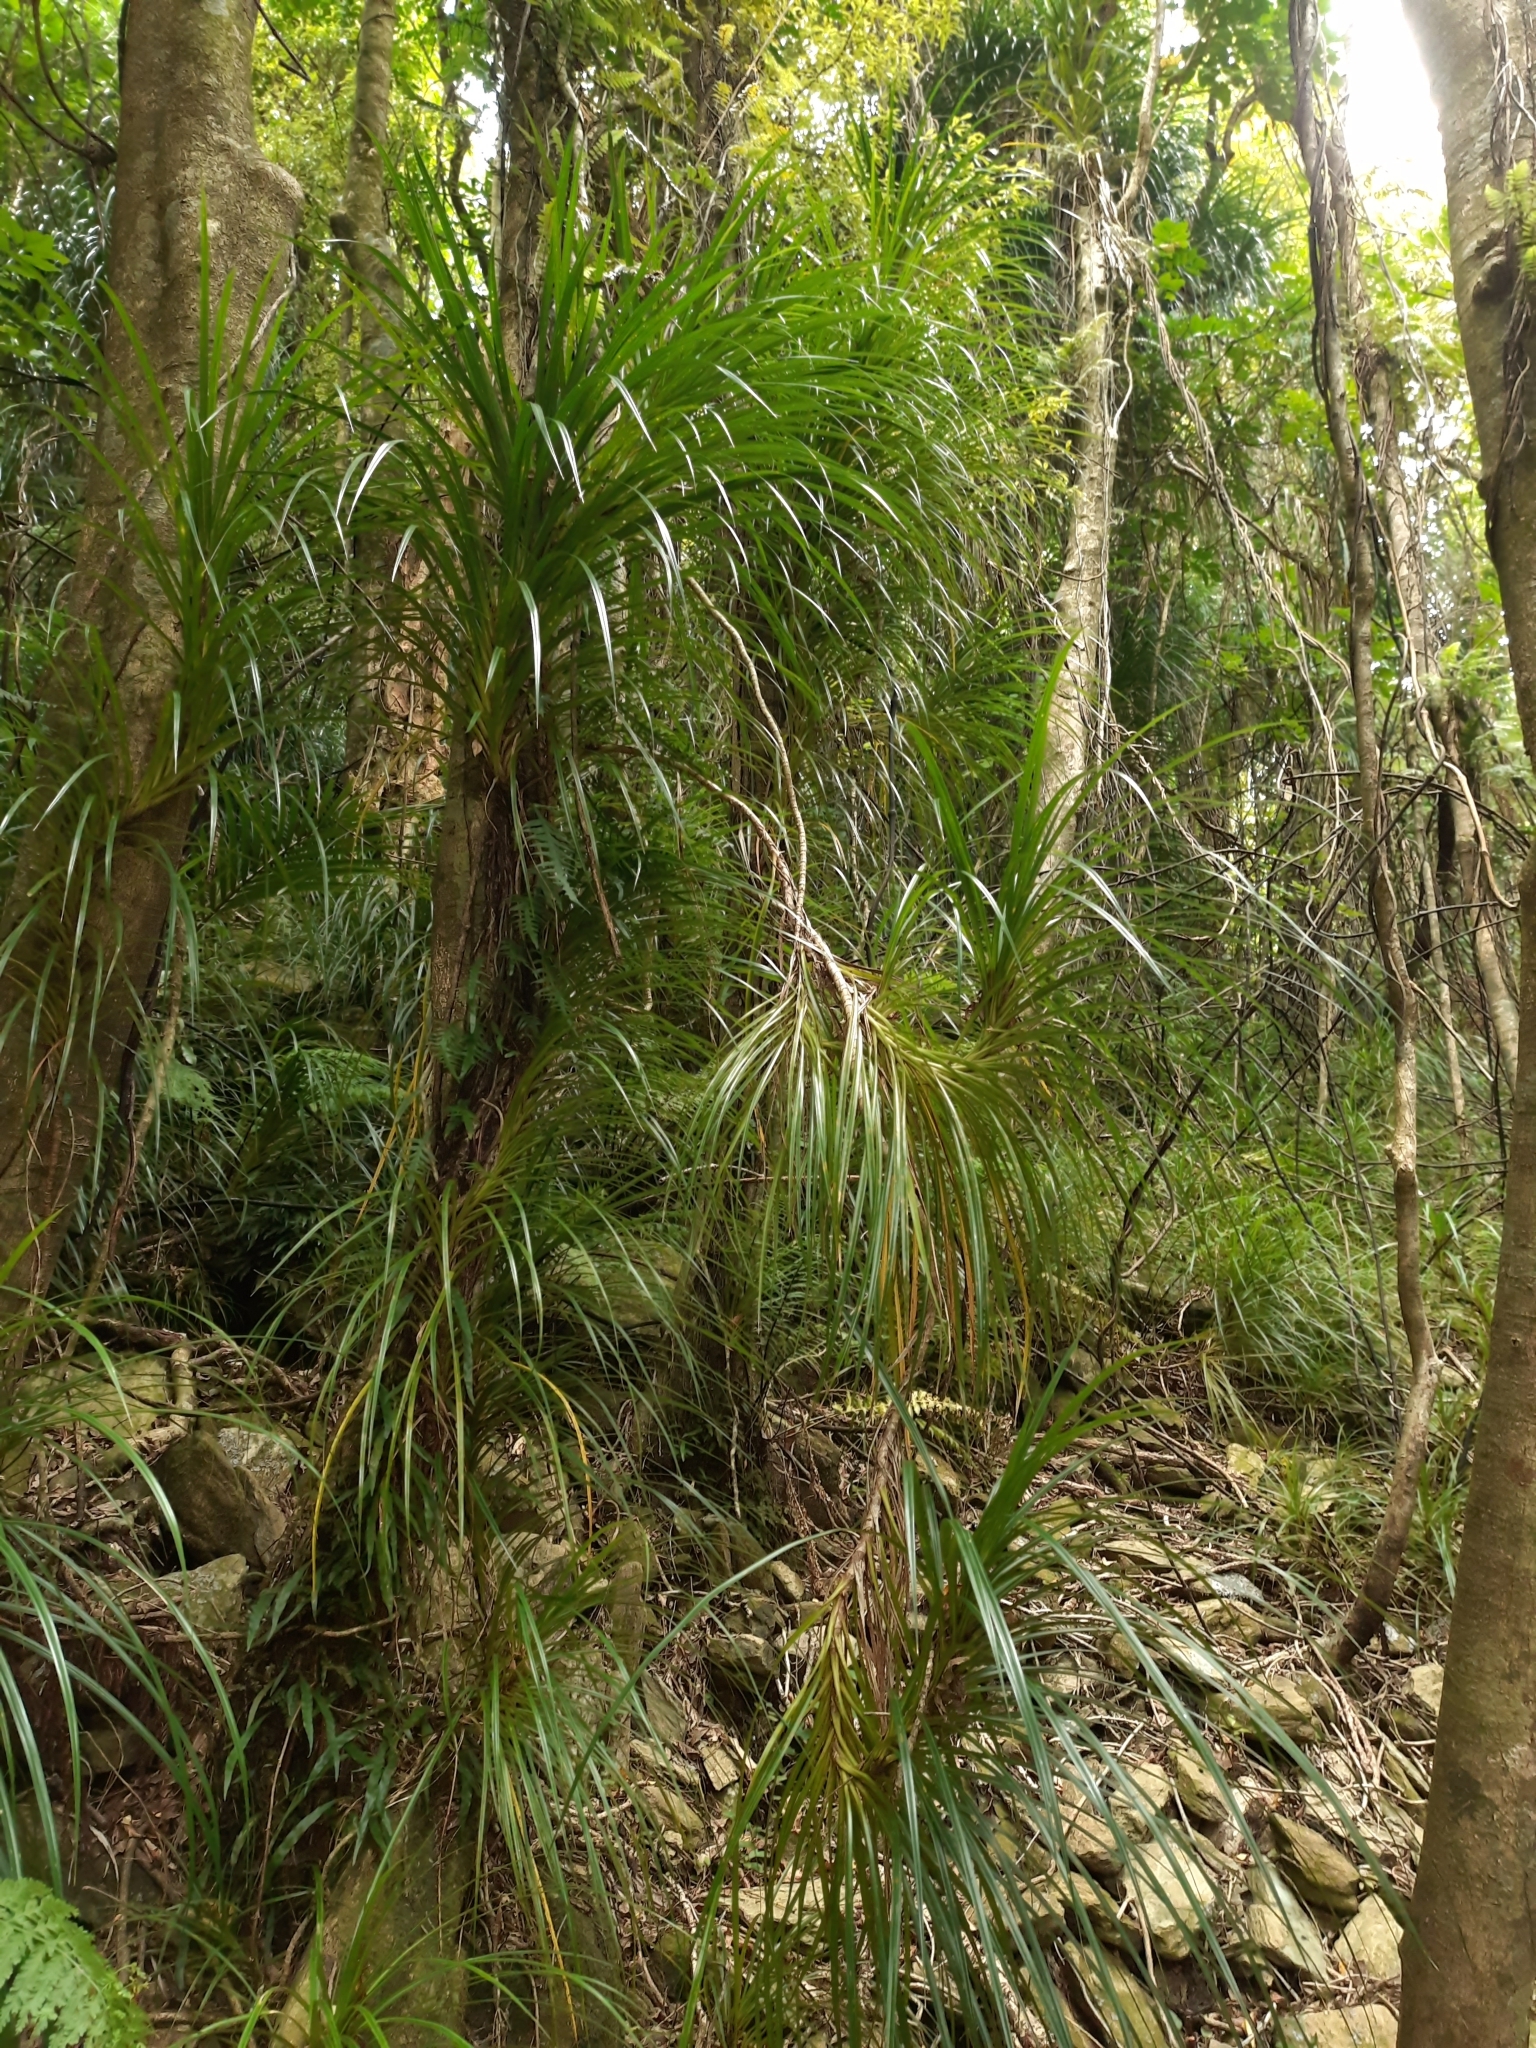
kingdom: Plantae
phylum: Tracheophyta
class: Liliopsida
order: Pandanales
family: Pandanaceae
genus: Freycinetia
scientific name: Freycinetia banksii
